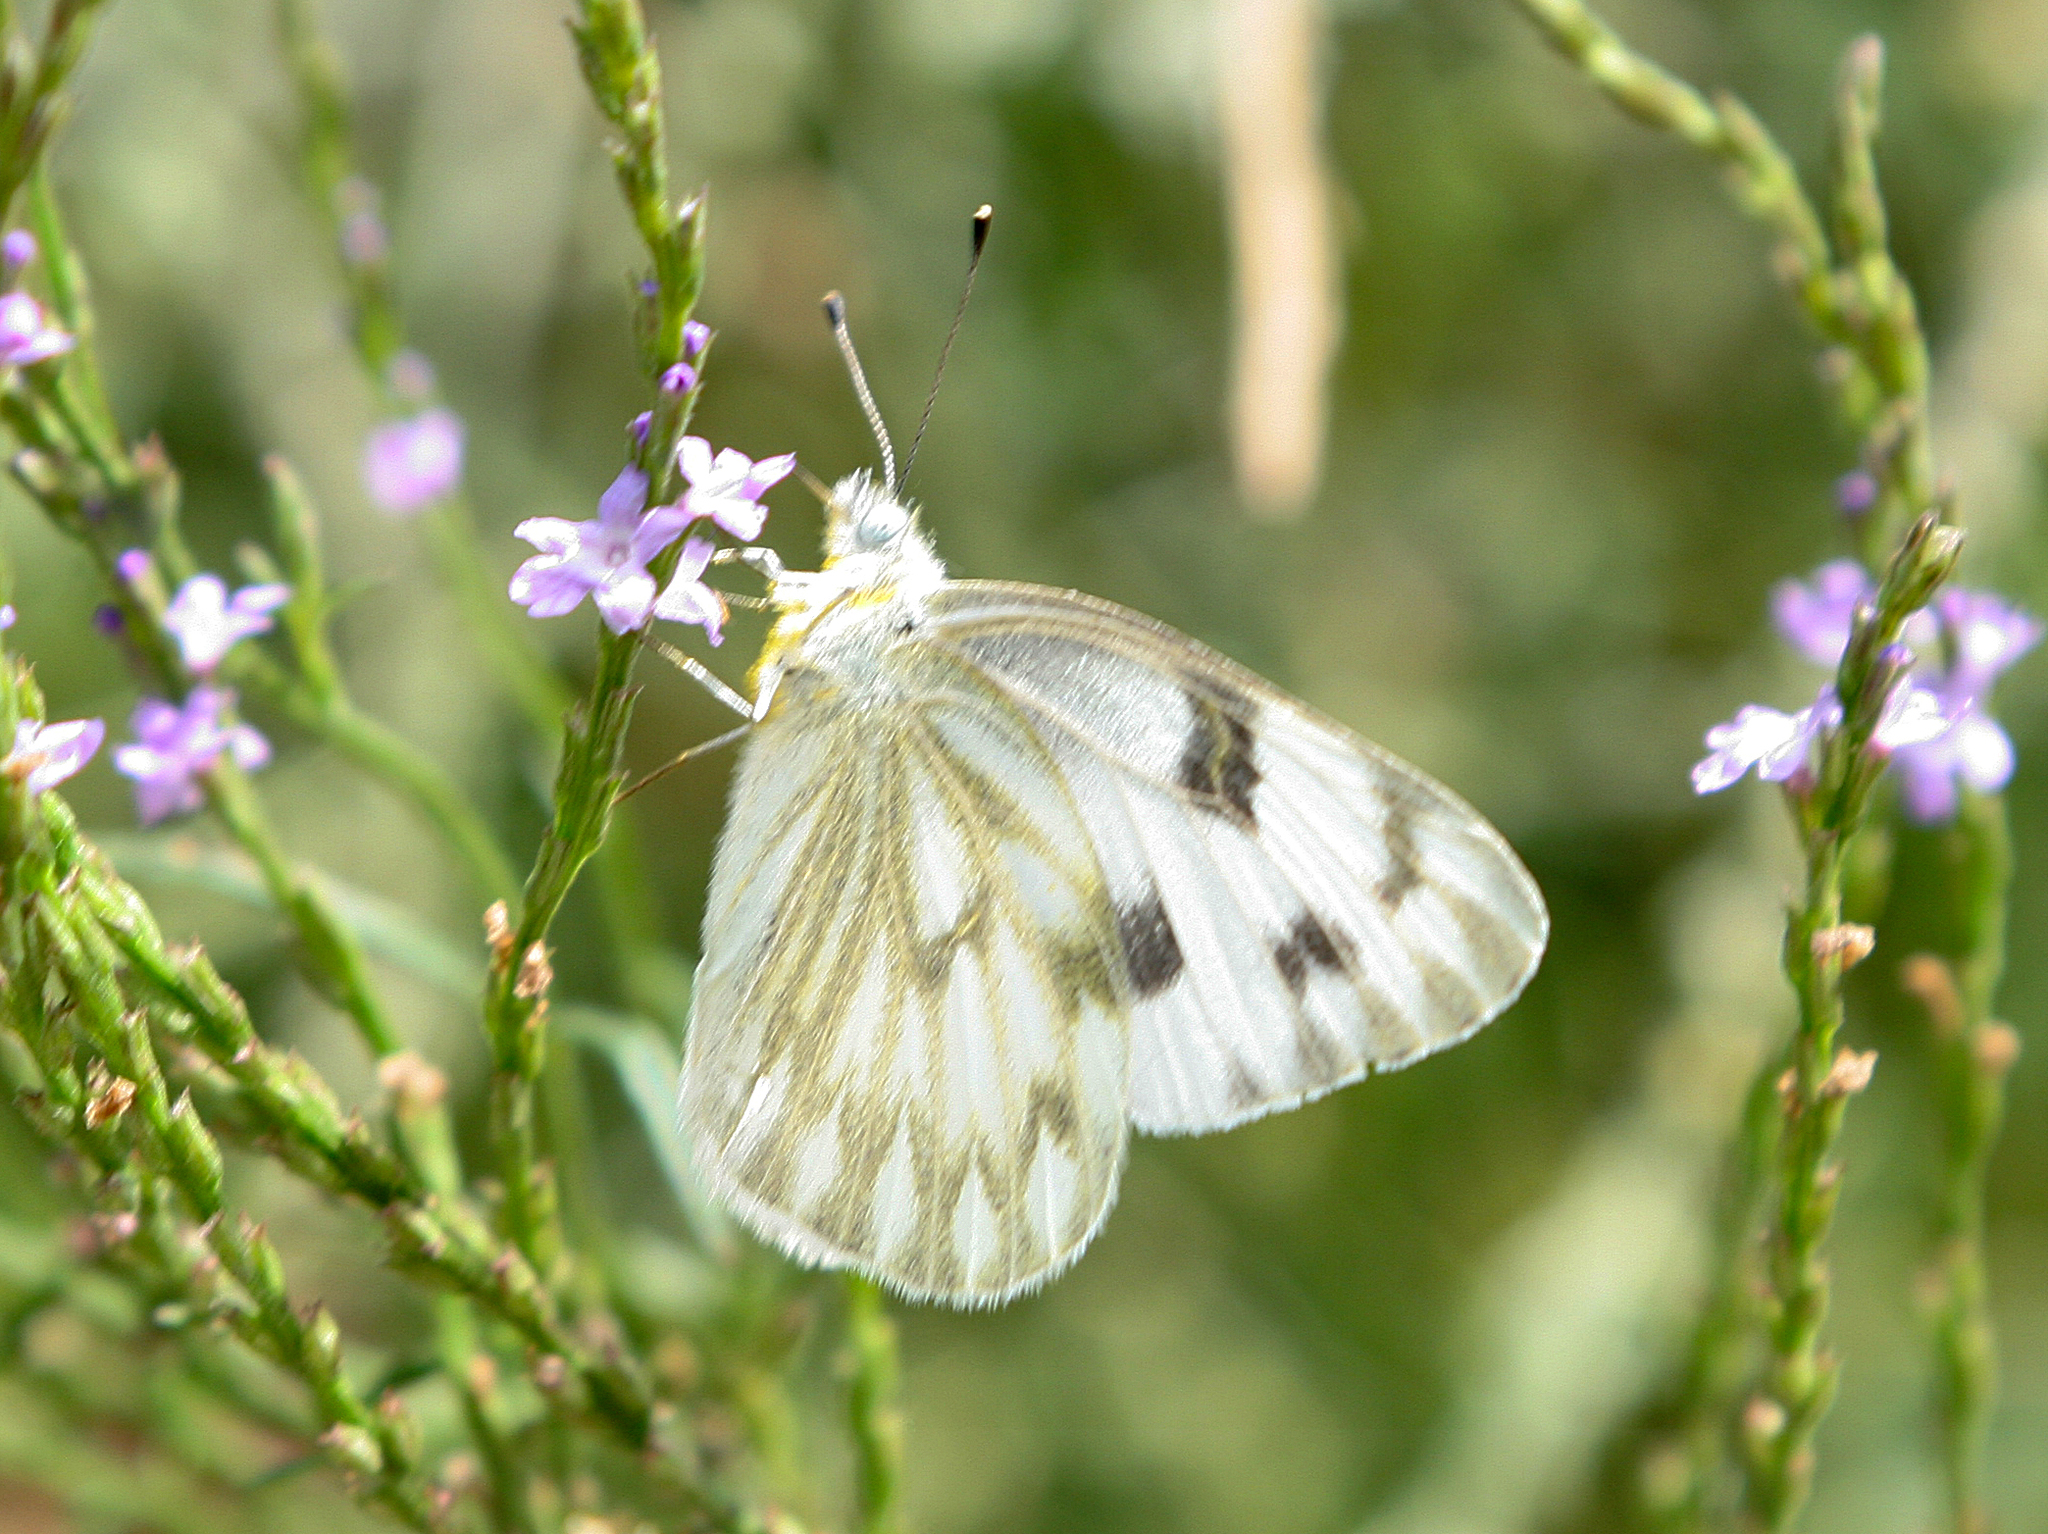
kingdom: Animalia
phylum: Arthropoda
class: Insecta
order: Lepidoptera
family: Pieridae
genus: Pontia
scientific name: Pontia protodice
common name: Checkered white
